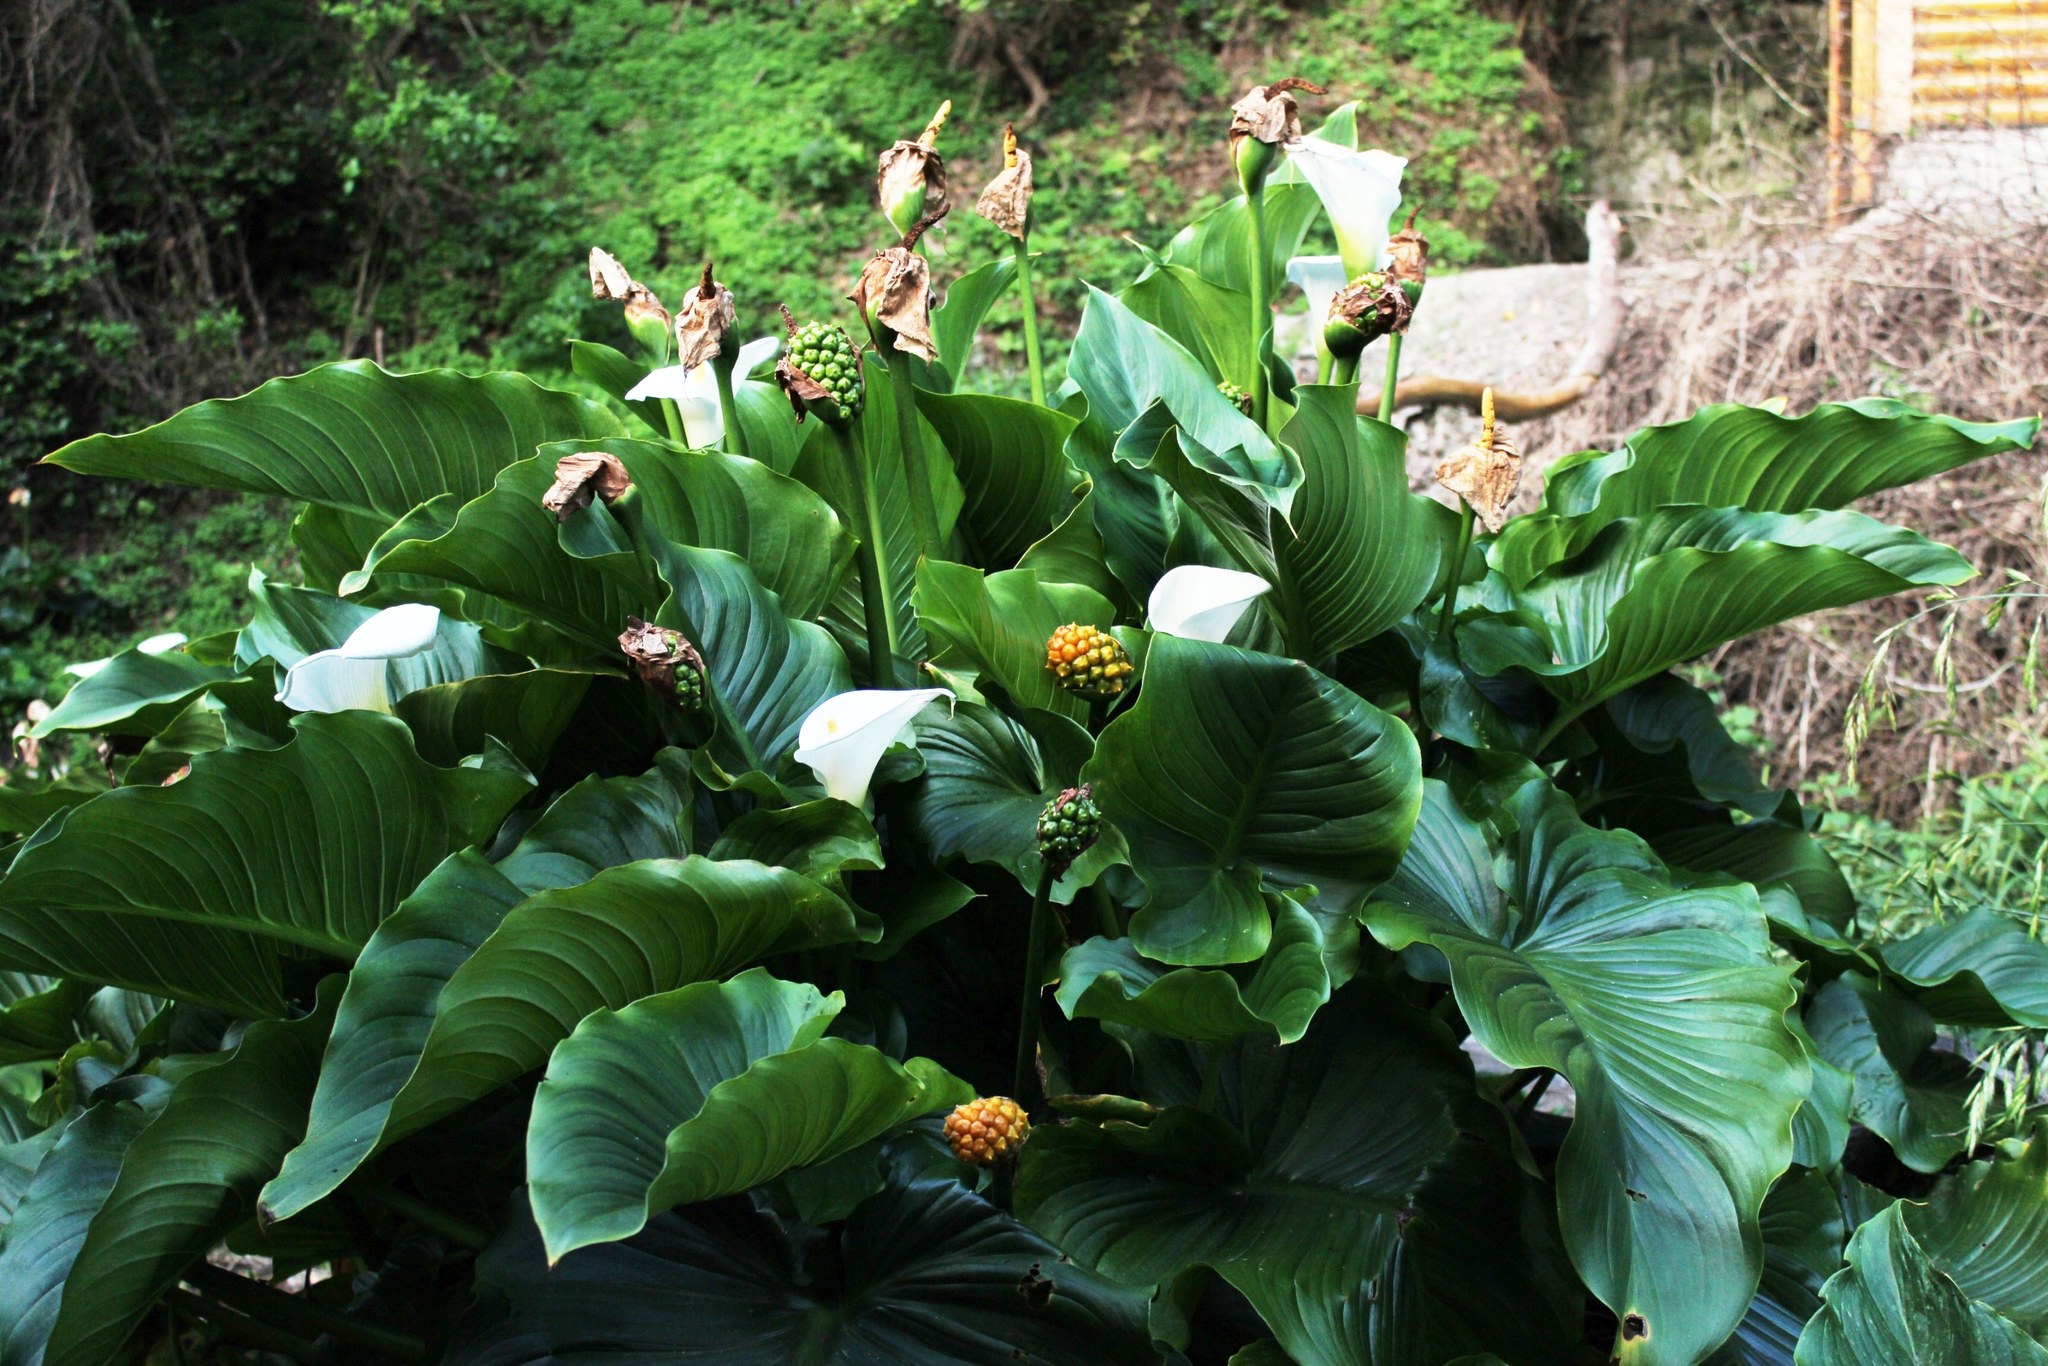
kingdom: Plantae
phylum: Tracheophyta
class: Liliopsida
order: Alismatales
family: Araceae
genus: Zantedeschia
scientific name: Zantedeschia aethiopica
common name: Altar-lily
